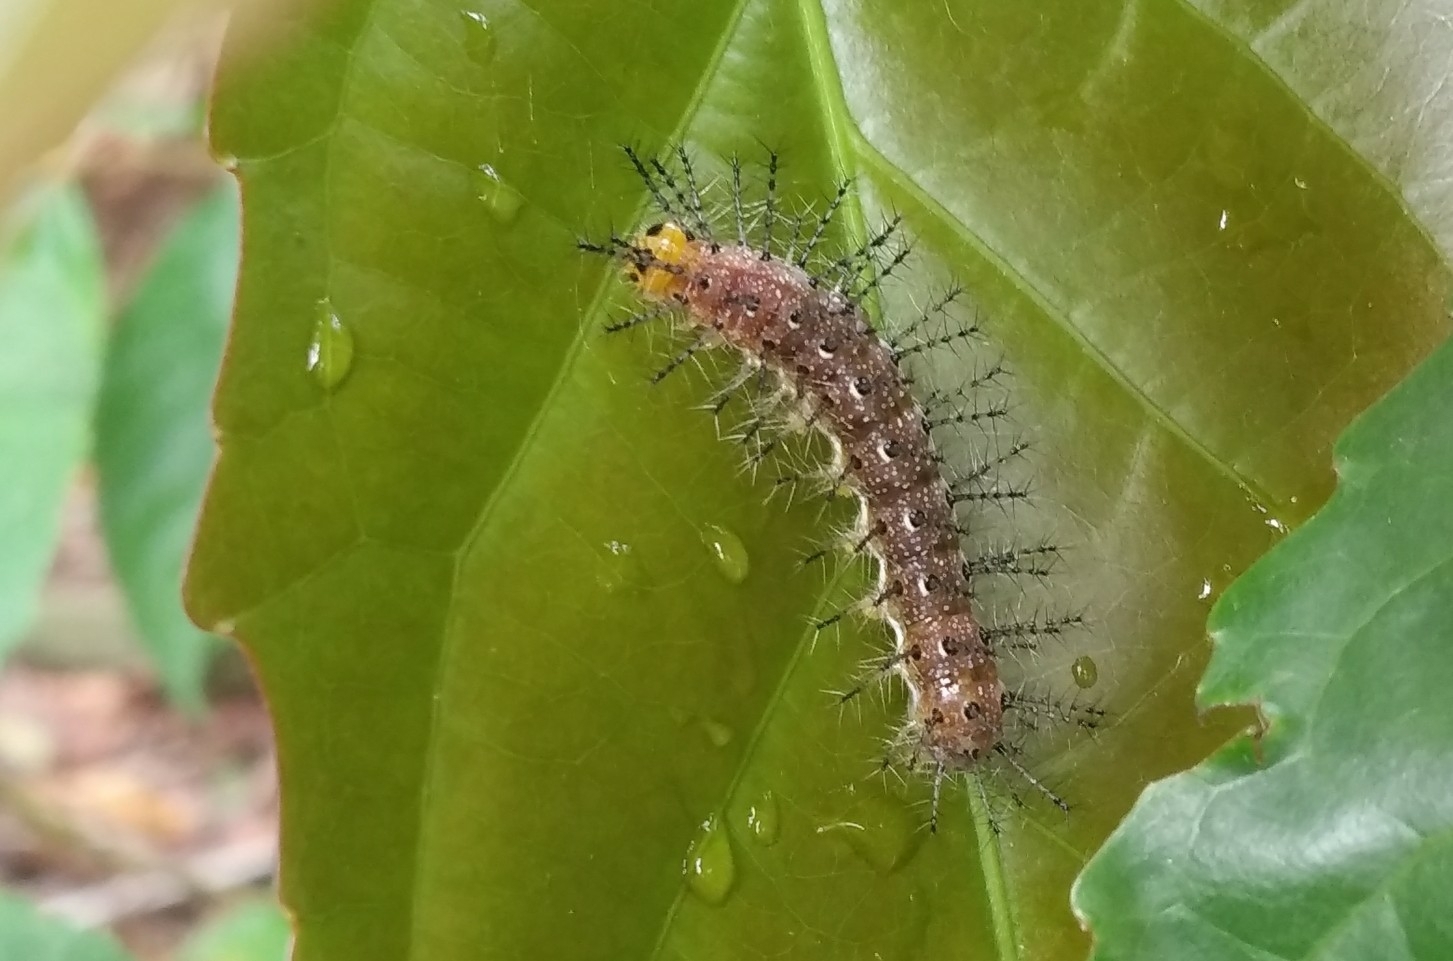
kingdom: Animalia
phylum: Arthropoda
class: Insecta
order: Lepidoptera
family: Nymphalidae
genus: Cupha
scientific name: Cupha erymanthis
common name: Rustic
